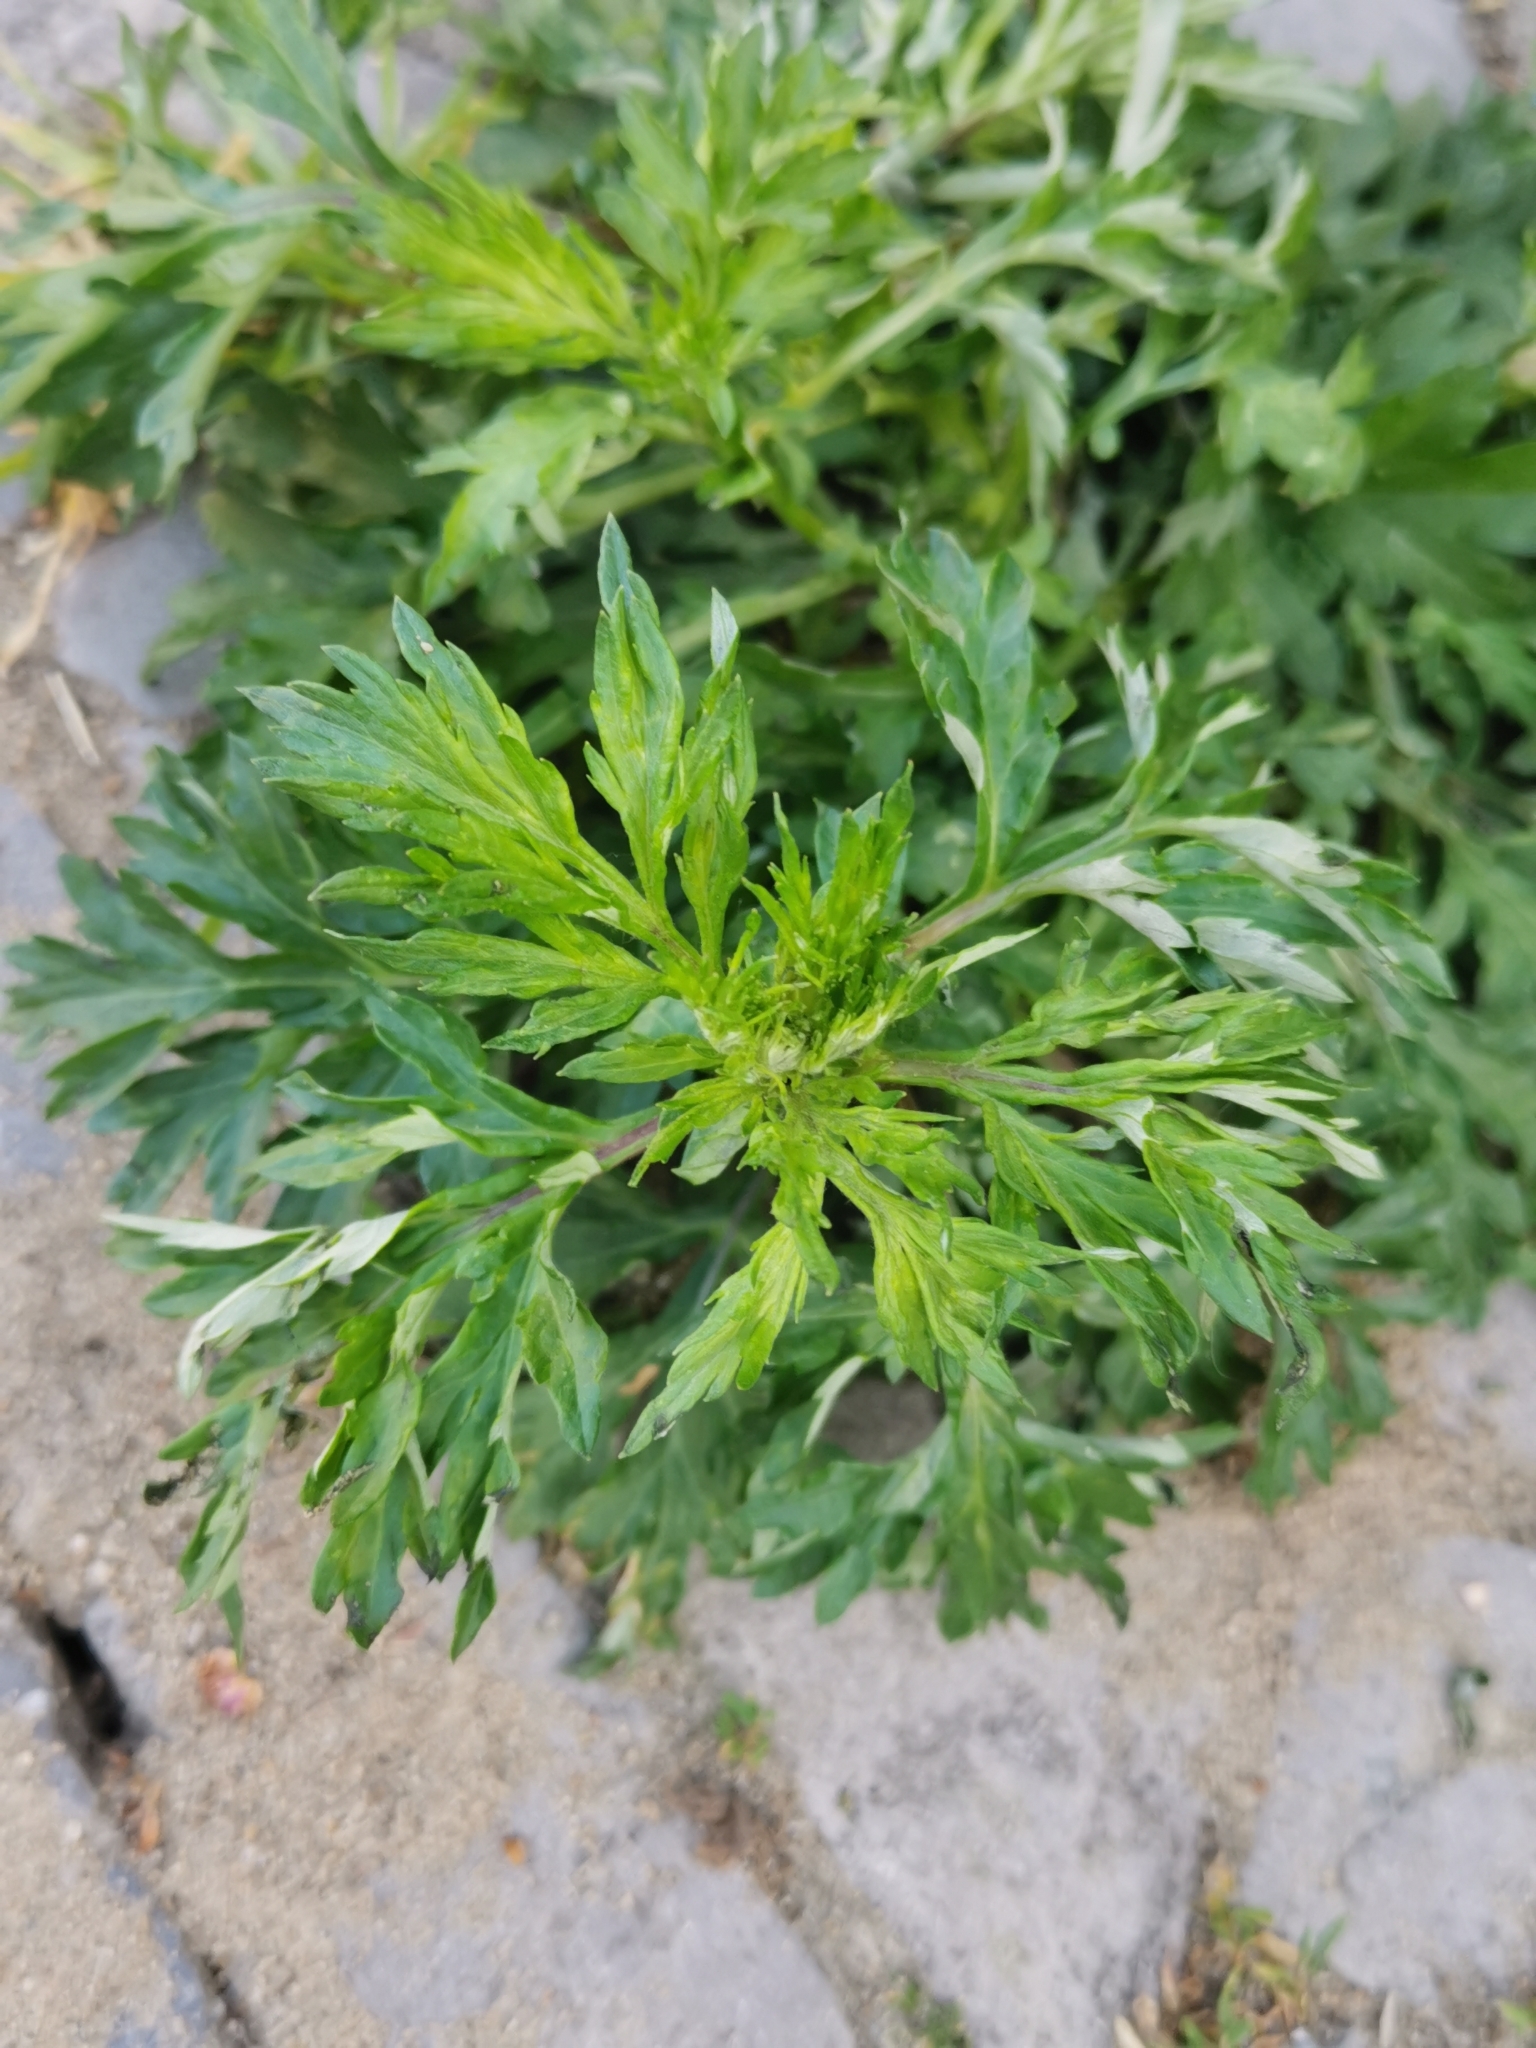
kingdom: Plantae
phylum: Tracheophyta
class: Magnoliopsida
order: Asterales
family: Asteraceae
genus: Artemisia
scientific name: Artemisia vulgaris
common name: Mugwort
